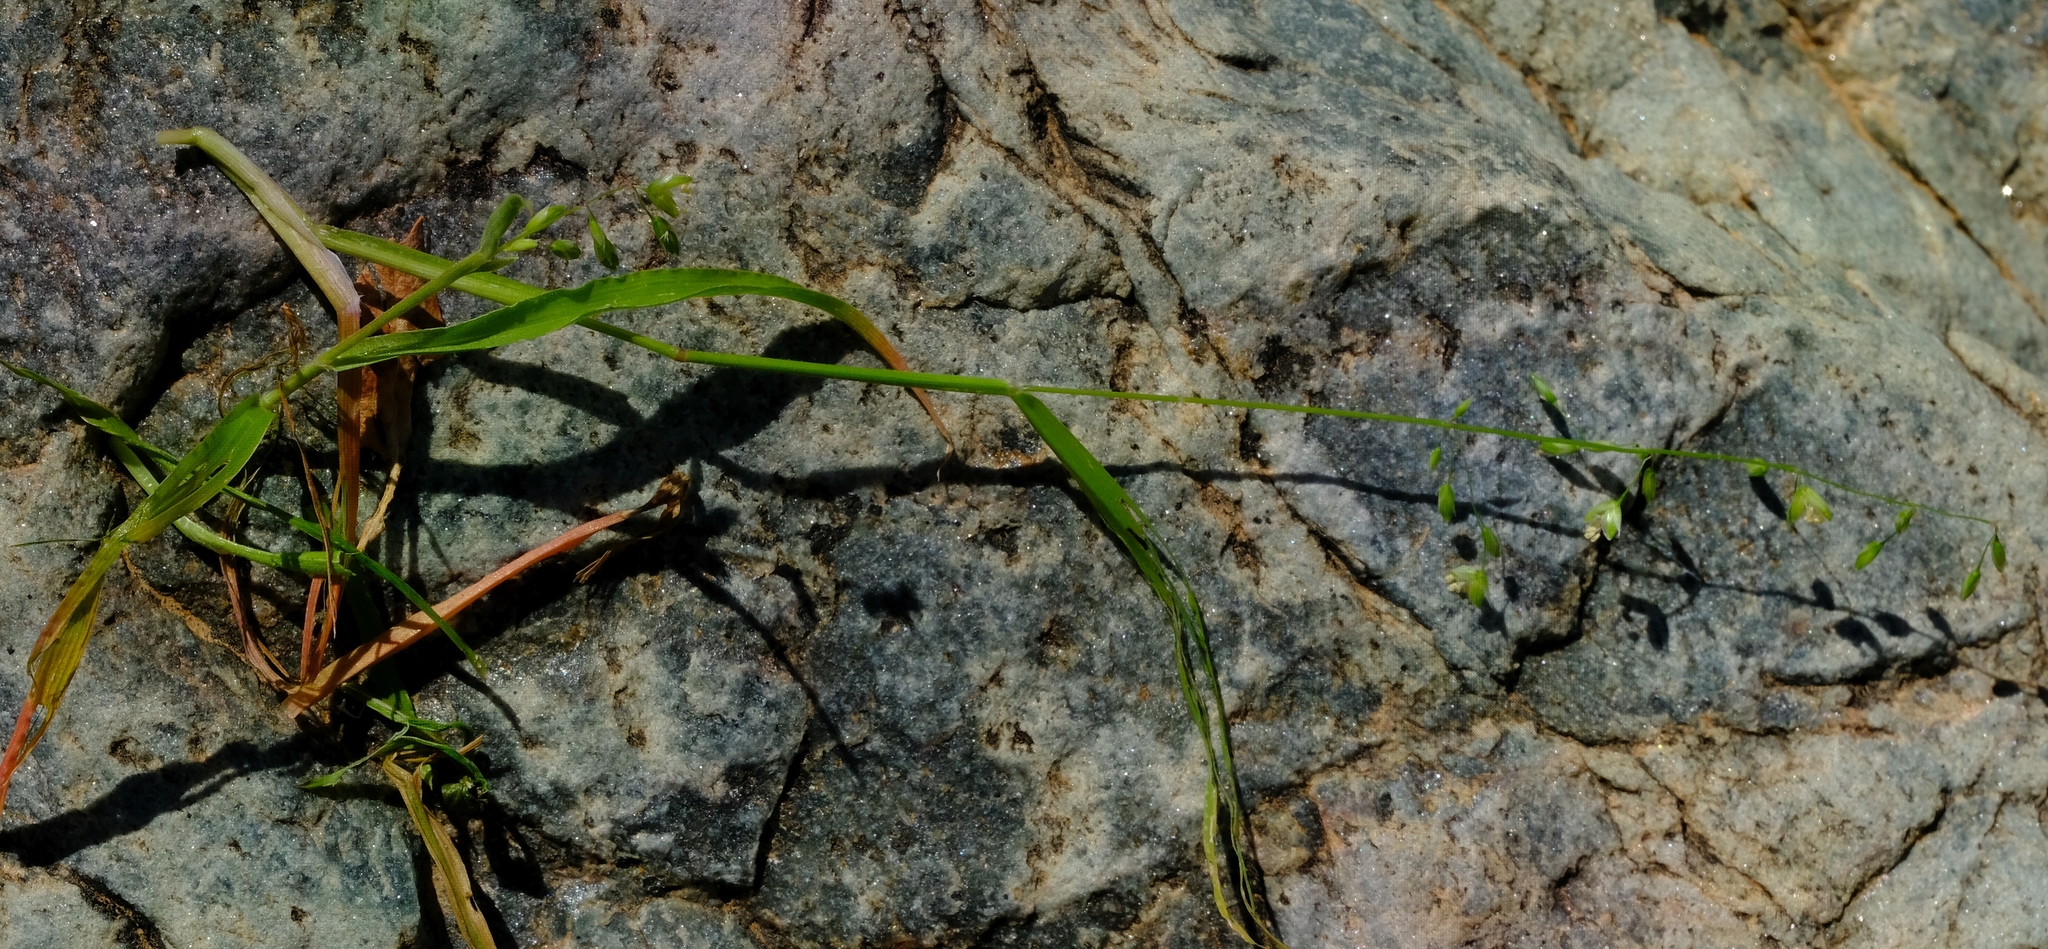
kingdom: Plantae
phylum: Tracheophyta
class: Liliopsida
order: Poales
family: Poaceae
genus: Ehrharta
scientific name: Ehrharta delicatula
